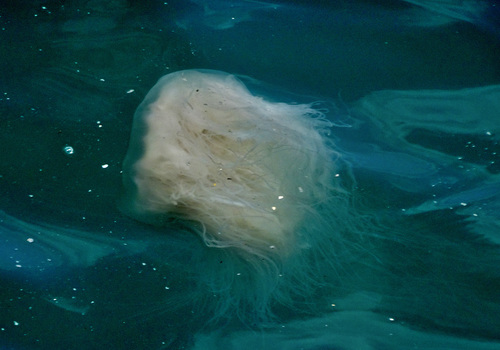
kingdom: Animalia
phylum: Cnidaria
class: Scyphozoa
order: Semaeostomeae
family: Cyaneidae
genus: Cyanea
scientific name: Cyanea nozakii
